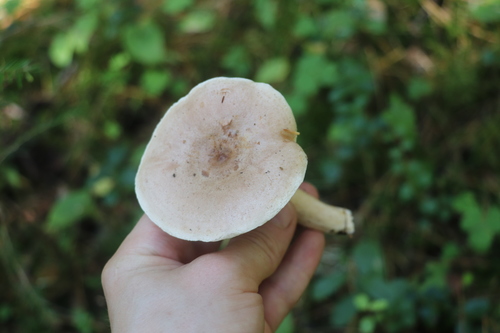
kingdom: Fungi
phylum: Basidiomycota
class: Agaricomycetes
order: Russulales
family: Russulaceae
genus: Lactarius
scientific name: Lactarius trivialis
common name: Tacked milkcap
